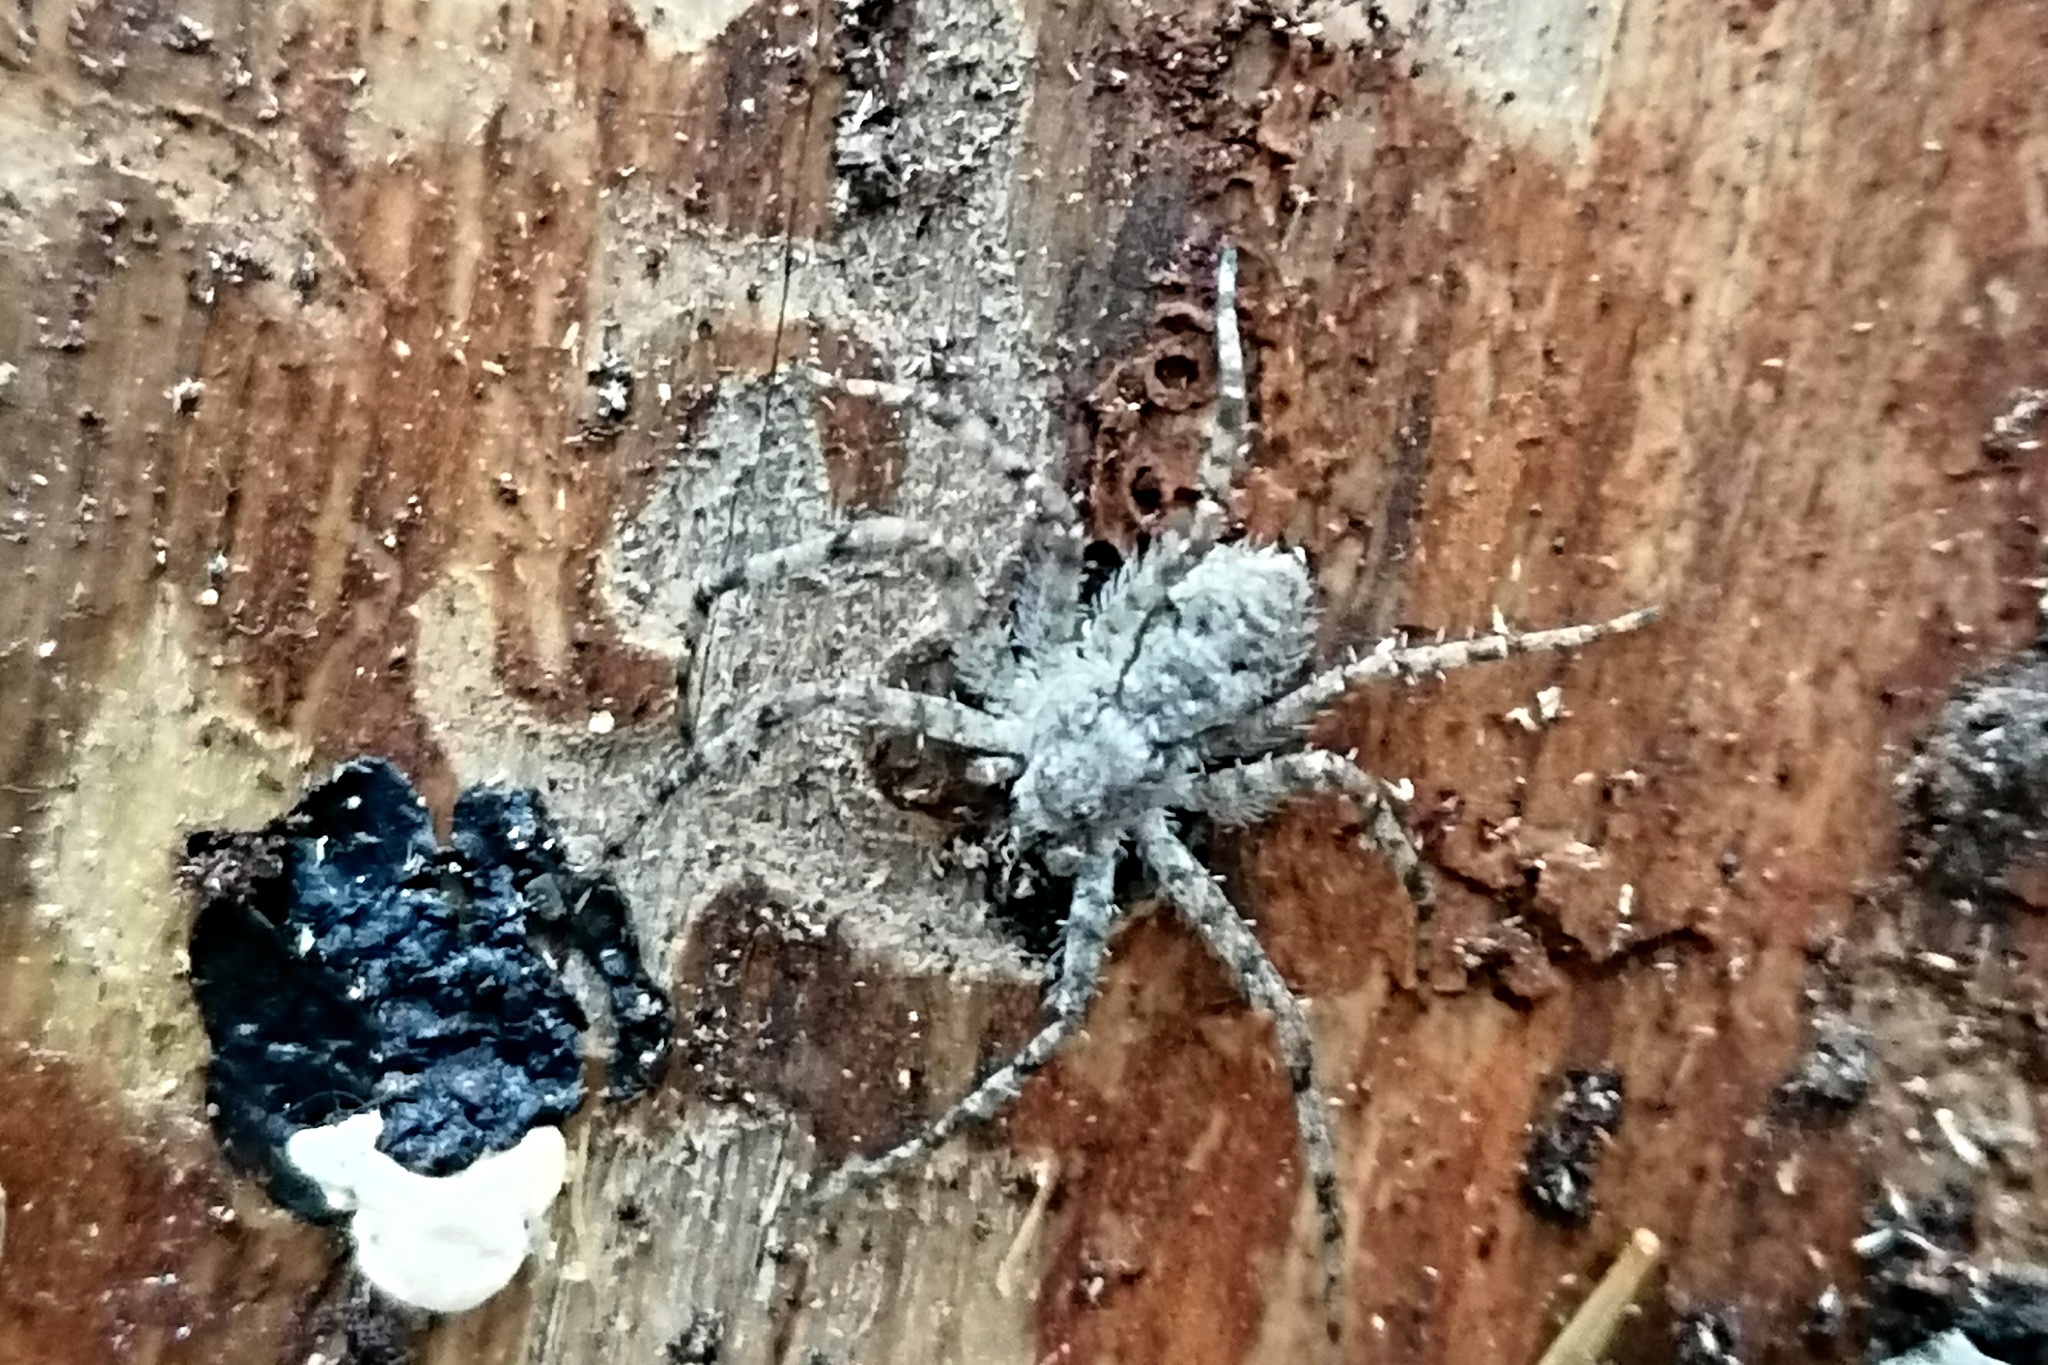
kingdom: Animalia
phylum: Arthropoda
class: Arachnida
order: Araneae
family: Philodromidae
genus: Philodromus
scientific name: Philodromus margaritatus
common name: Lichen running-spider
